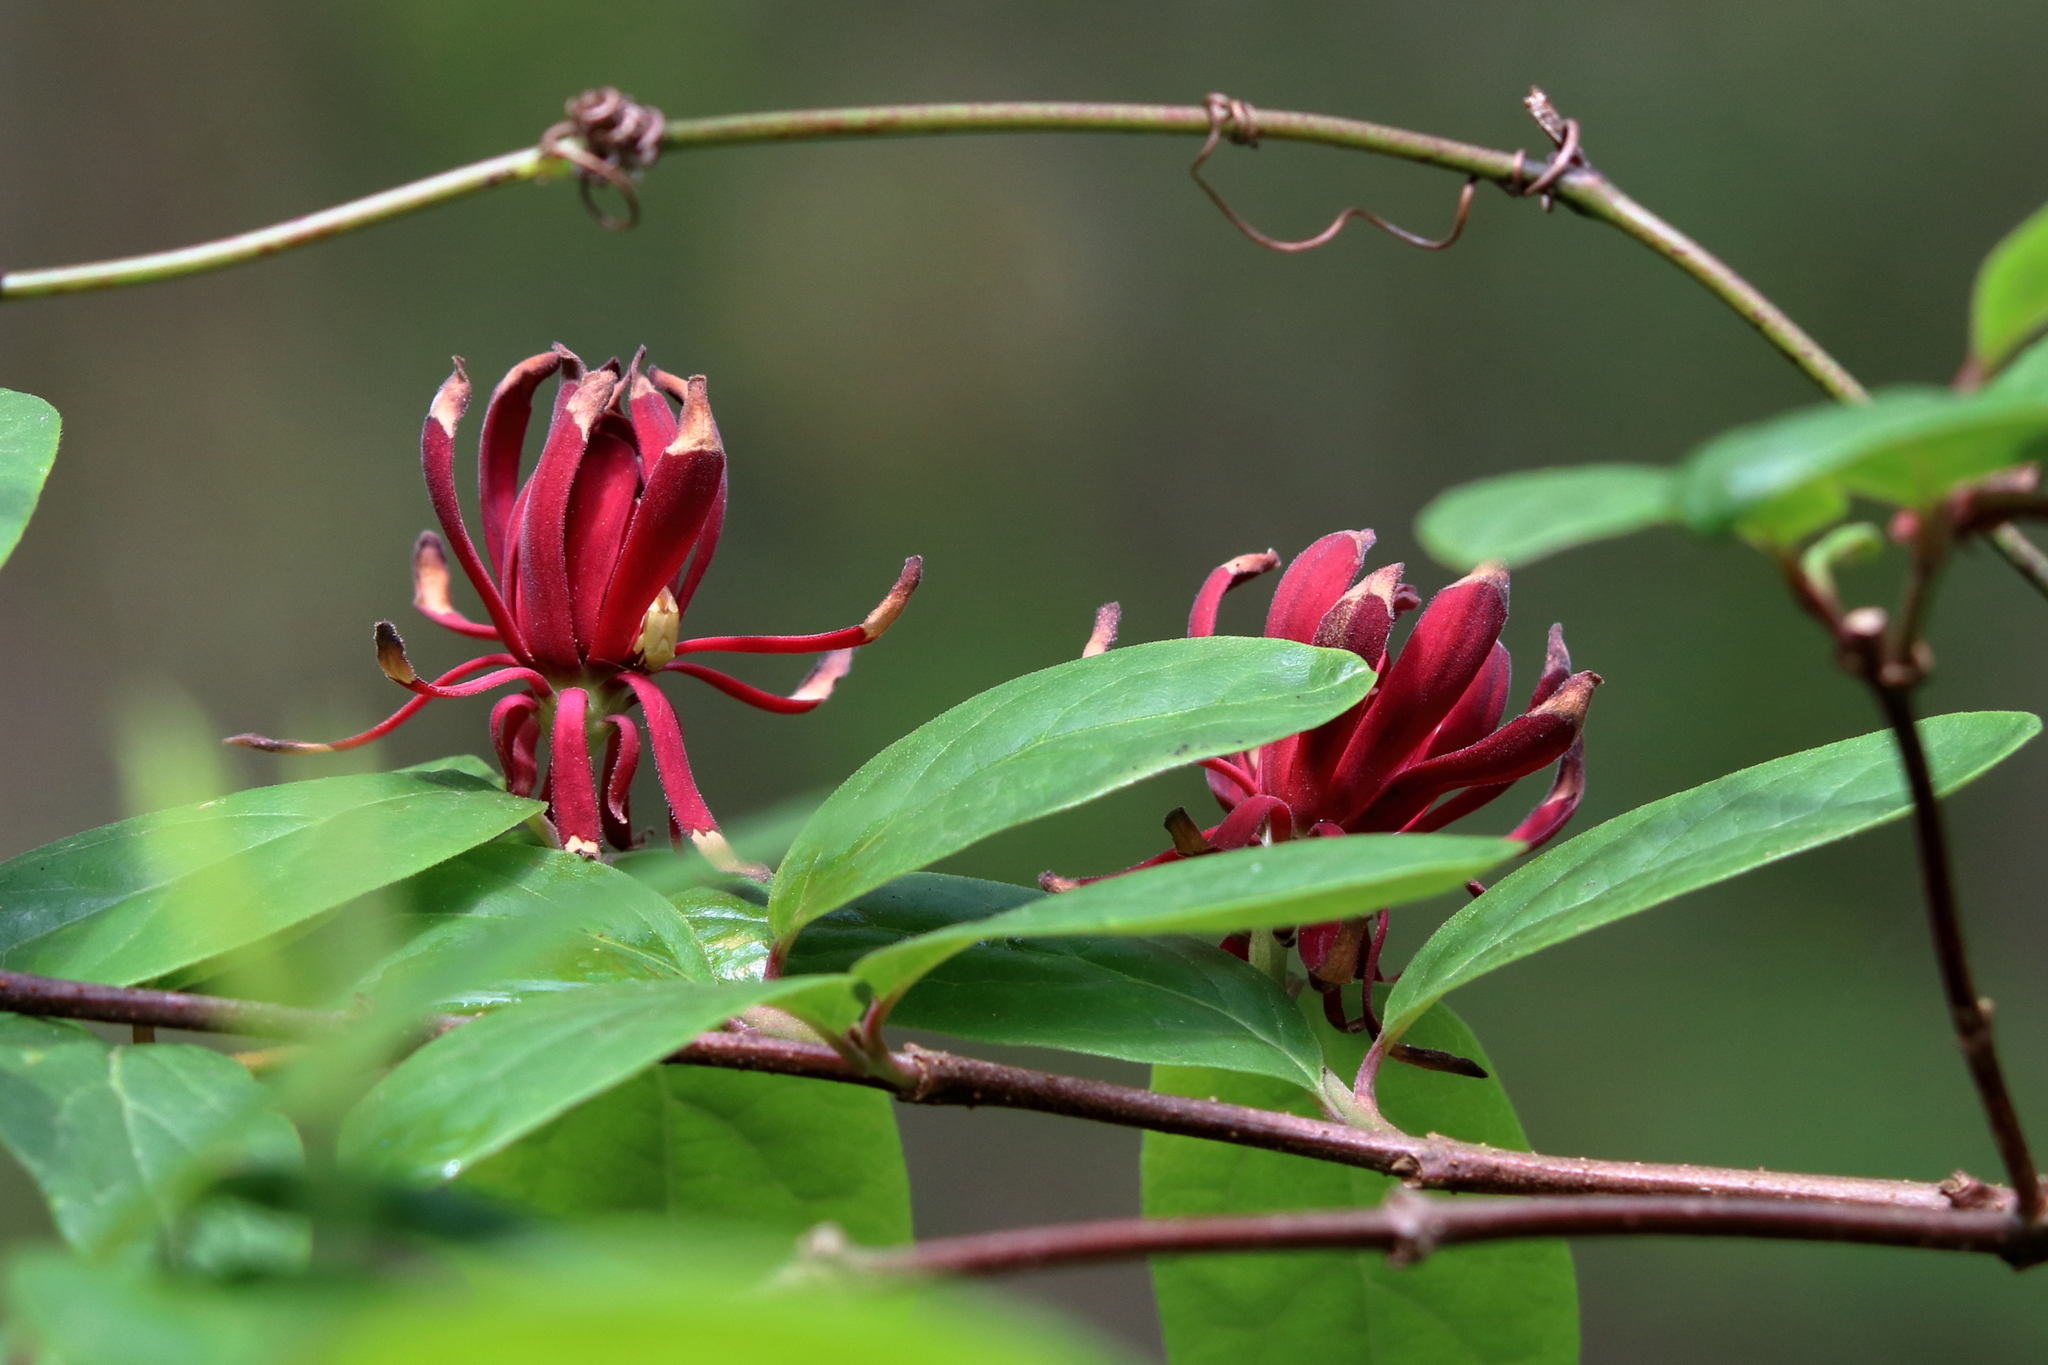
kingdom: Plantae
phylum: Tracheophyta
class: Magnoliopsida
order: Laurales
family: Calycanthaceae
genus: Calycanthus
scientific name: Calycanthus floridus
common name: Carolina-allspice
